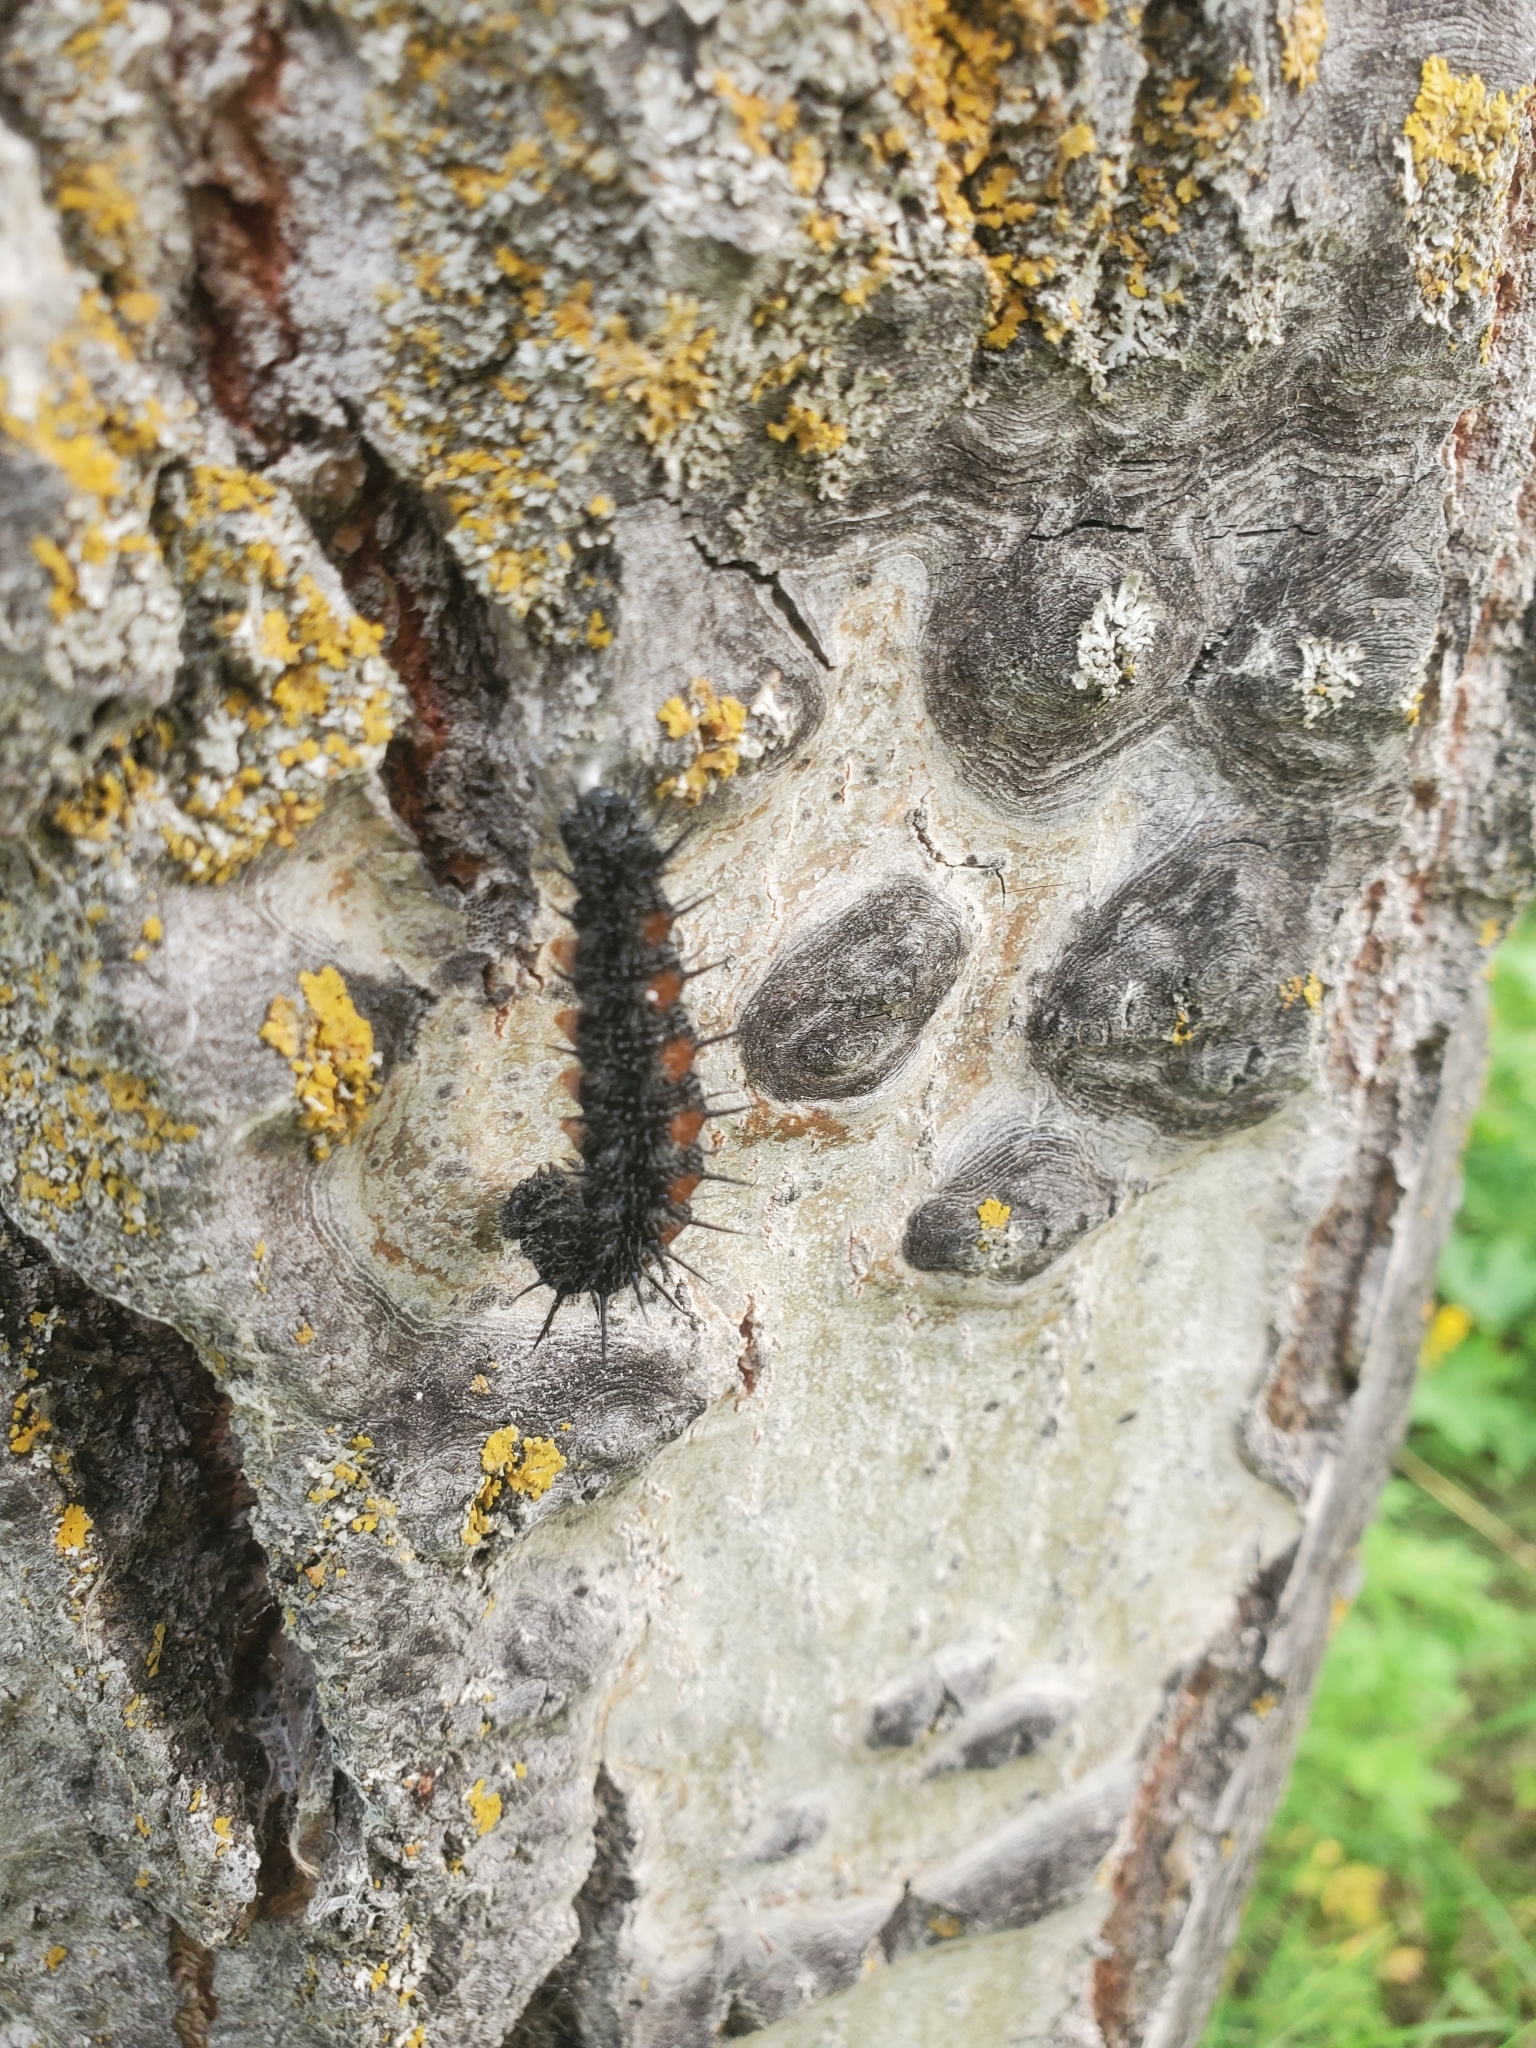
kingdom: Animalia
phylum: Arthropoda
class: Insecta
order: Lepidoptera
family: Nymphalidae
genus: Nymphalis
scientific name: Nymphalis antiopa
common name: Camberwell beauty
